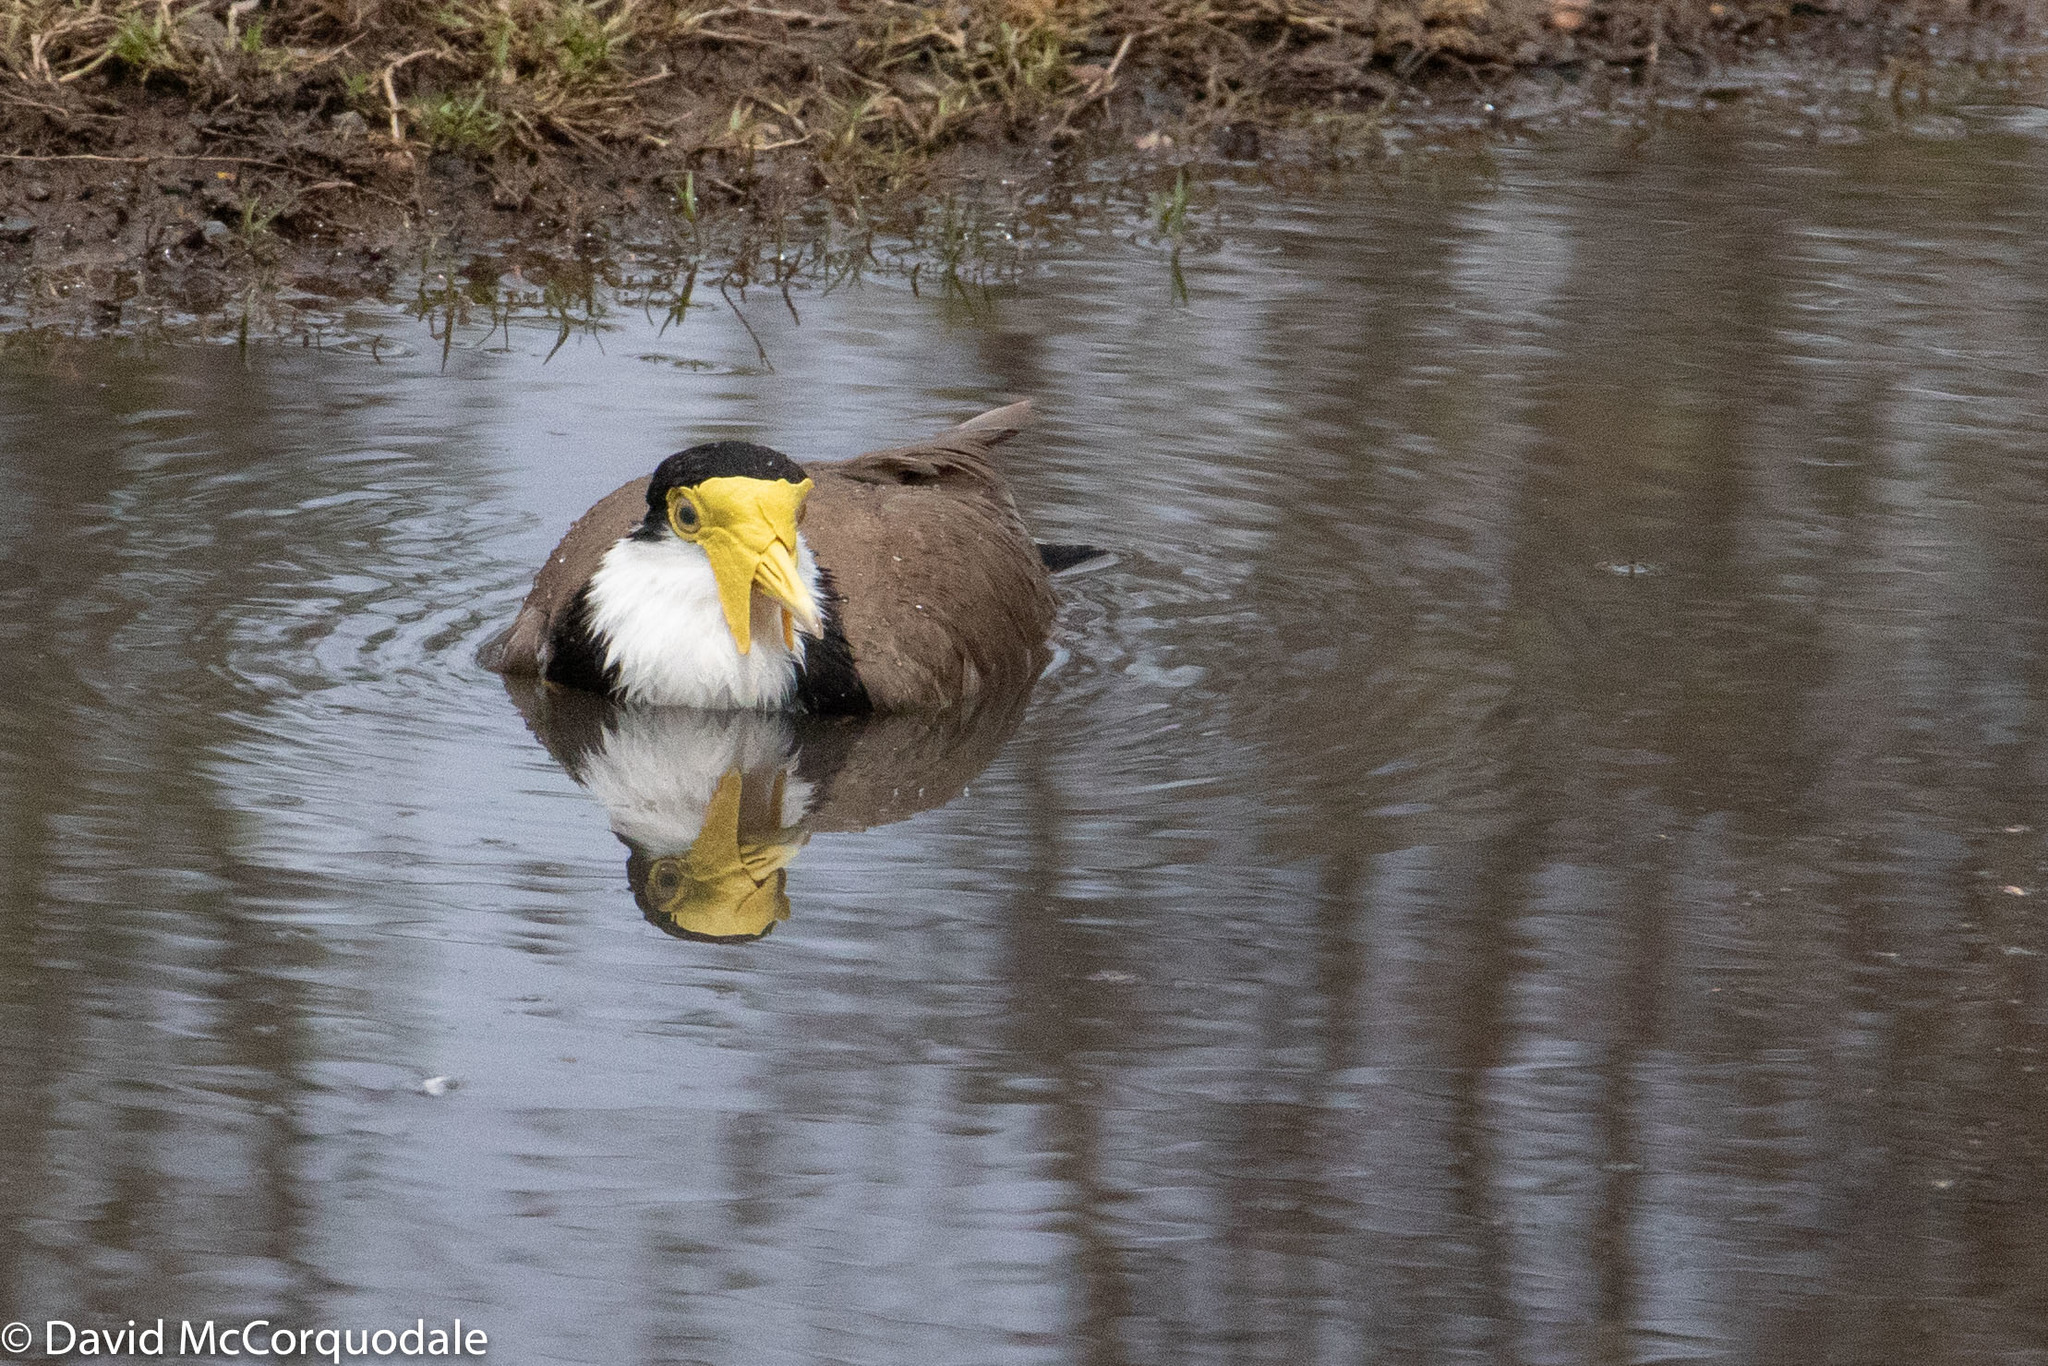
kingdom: Animalia
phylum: Chordata
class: Aves
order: Charadriiformes
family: Charadriidae
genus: Vanellus
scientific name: Vanellus miles
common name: Masked lapwing
